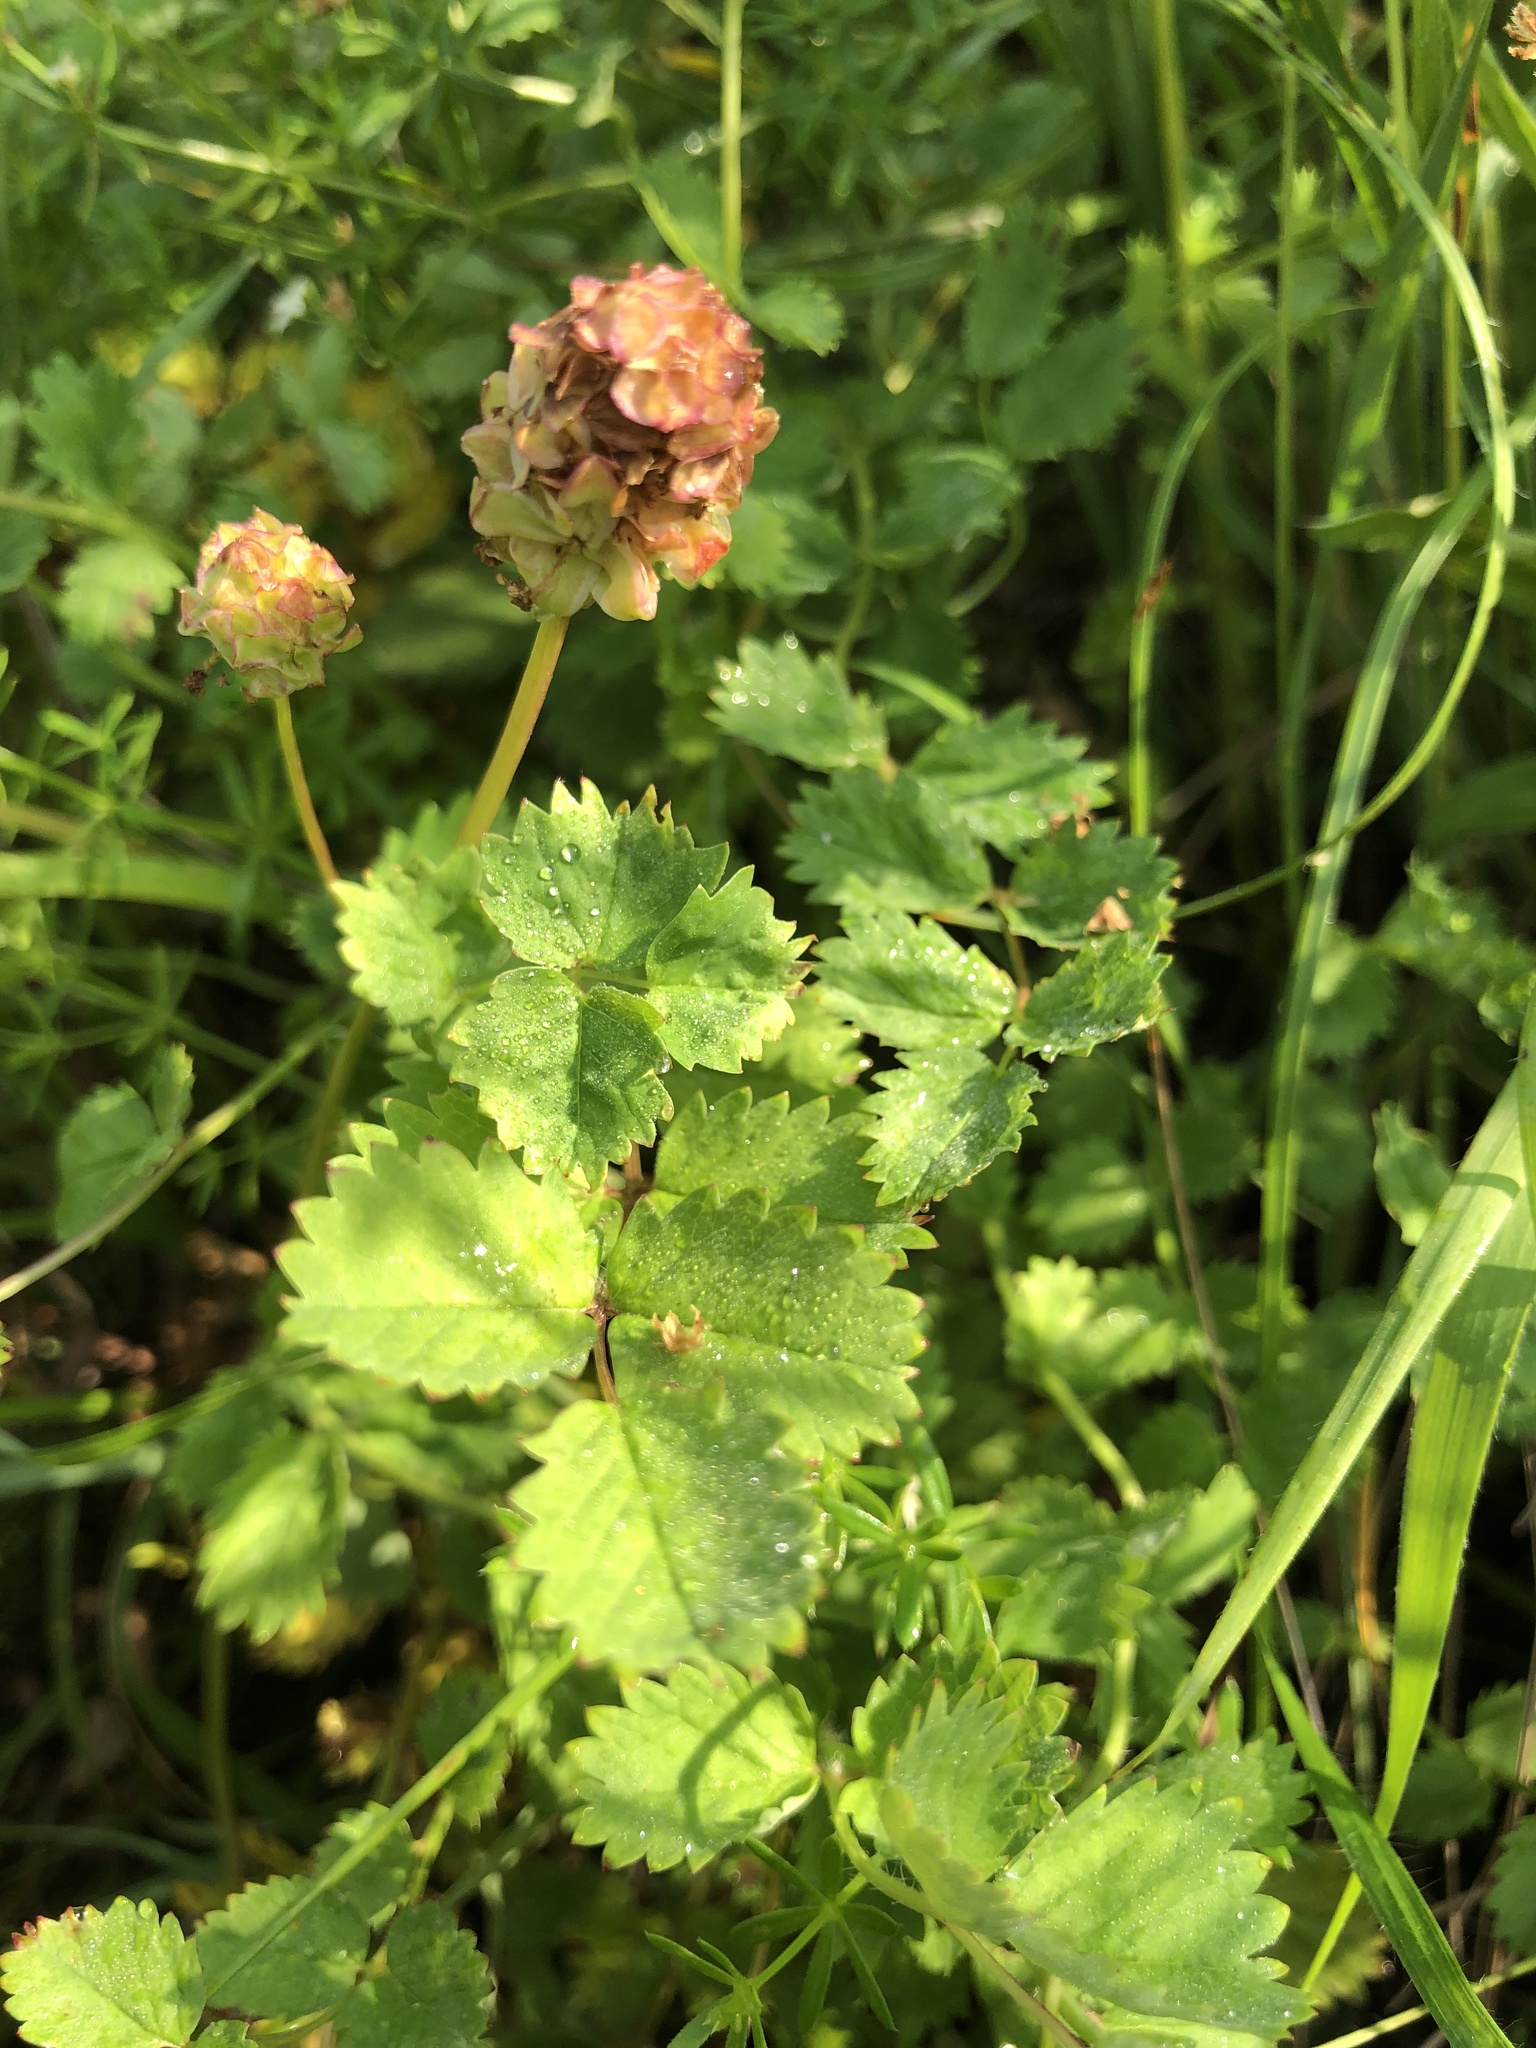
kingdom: Plantae
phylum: Tracheophyta
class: Magnoliopsida
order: Rosales
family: Rosaceae
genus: Poterium
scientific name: Poterium sanguisorba
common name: Salad burnet
